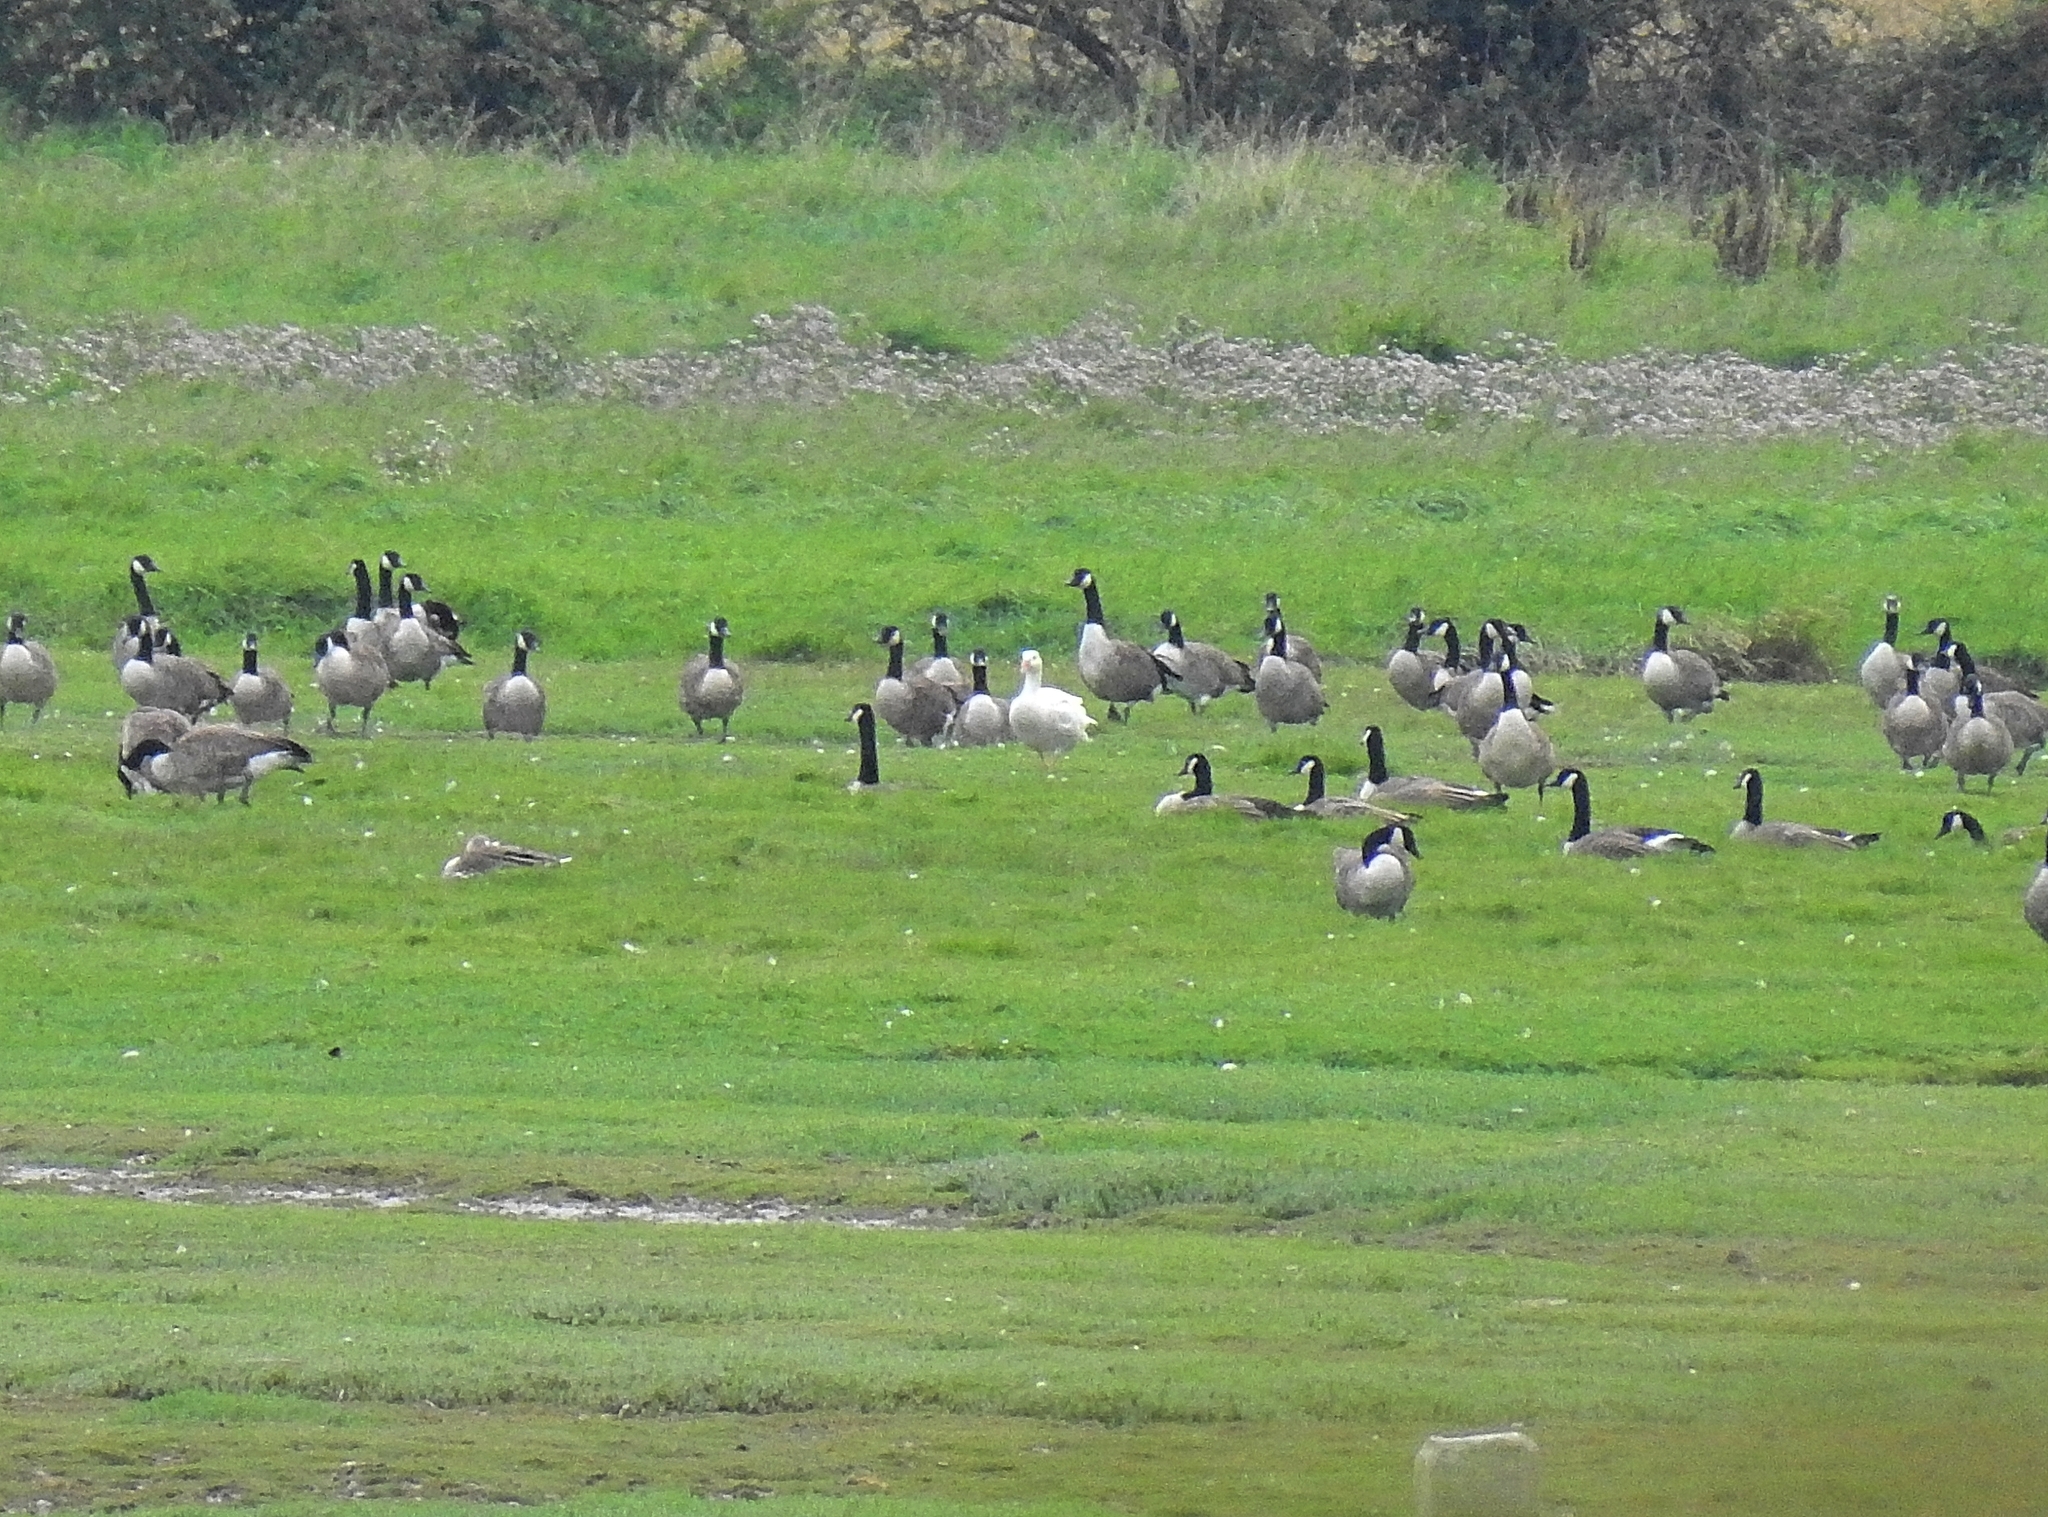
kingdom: Animalia
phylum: Chordata
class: Aves
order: Anseriformes
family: Anatidae
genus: Branta
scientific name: Branta canadensis
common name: Canada goose
